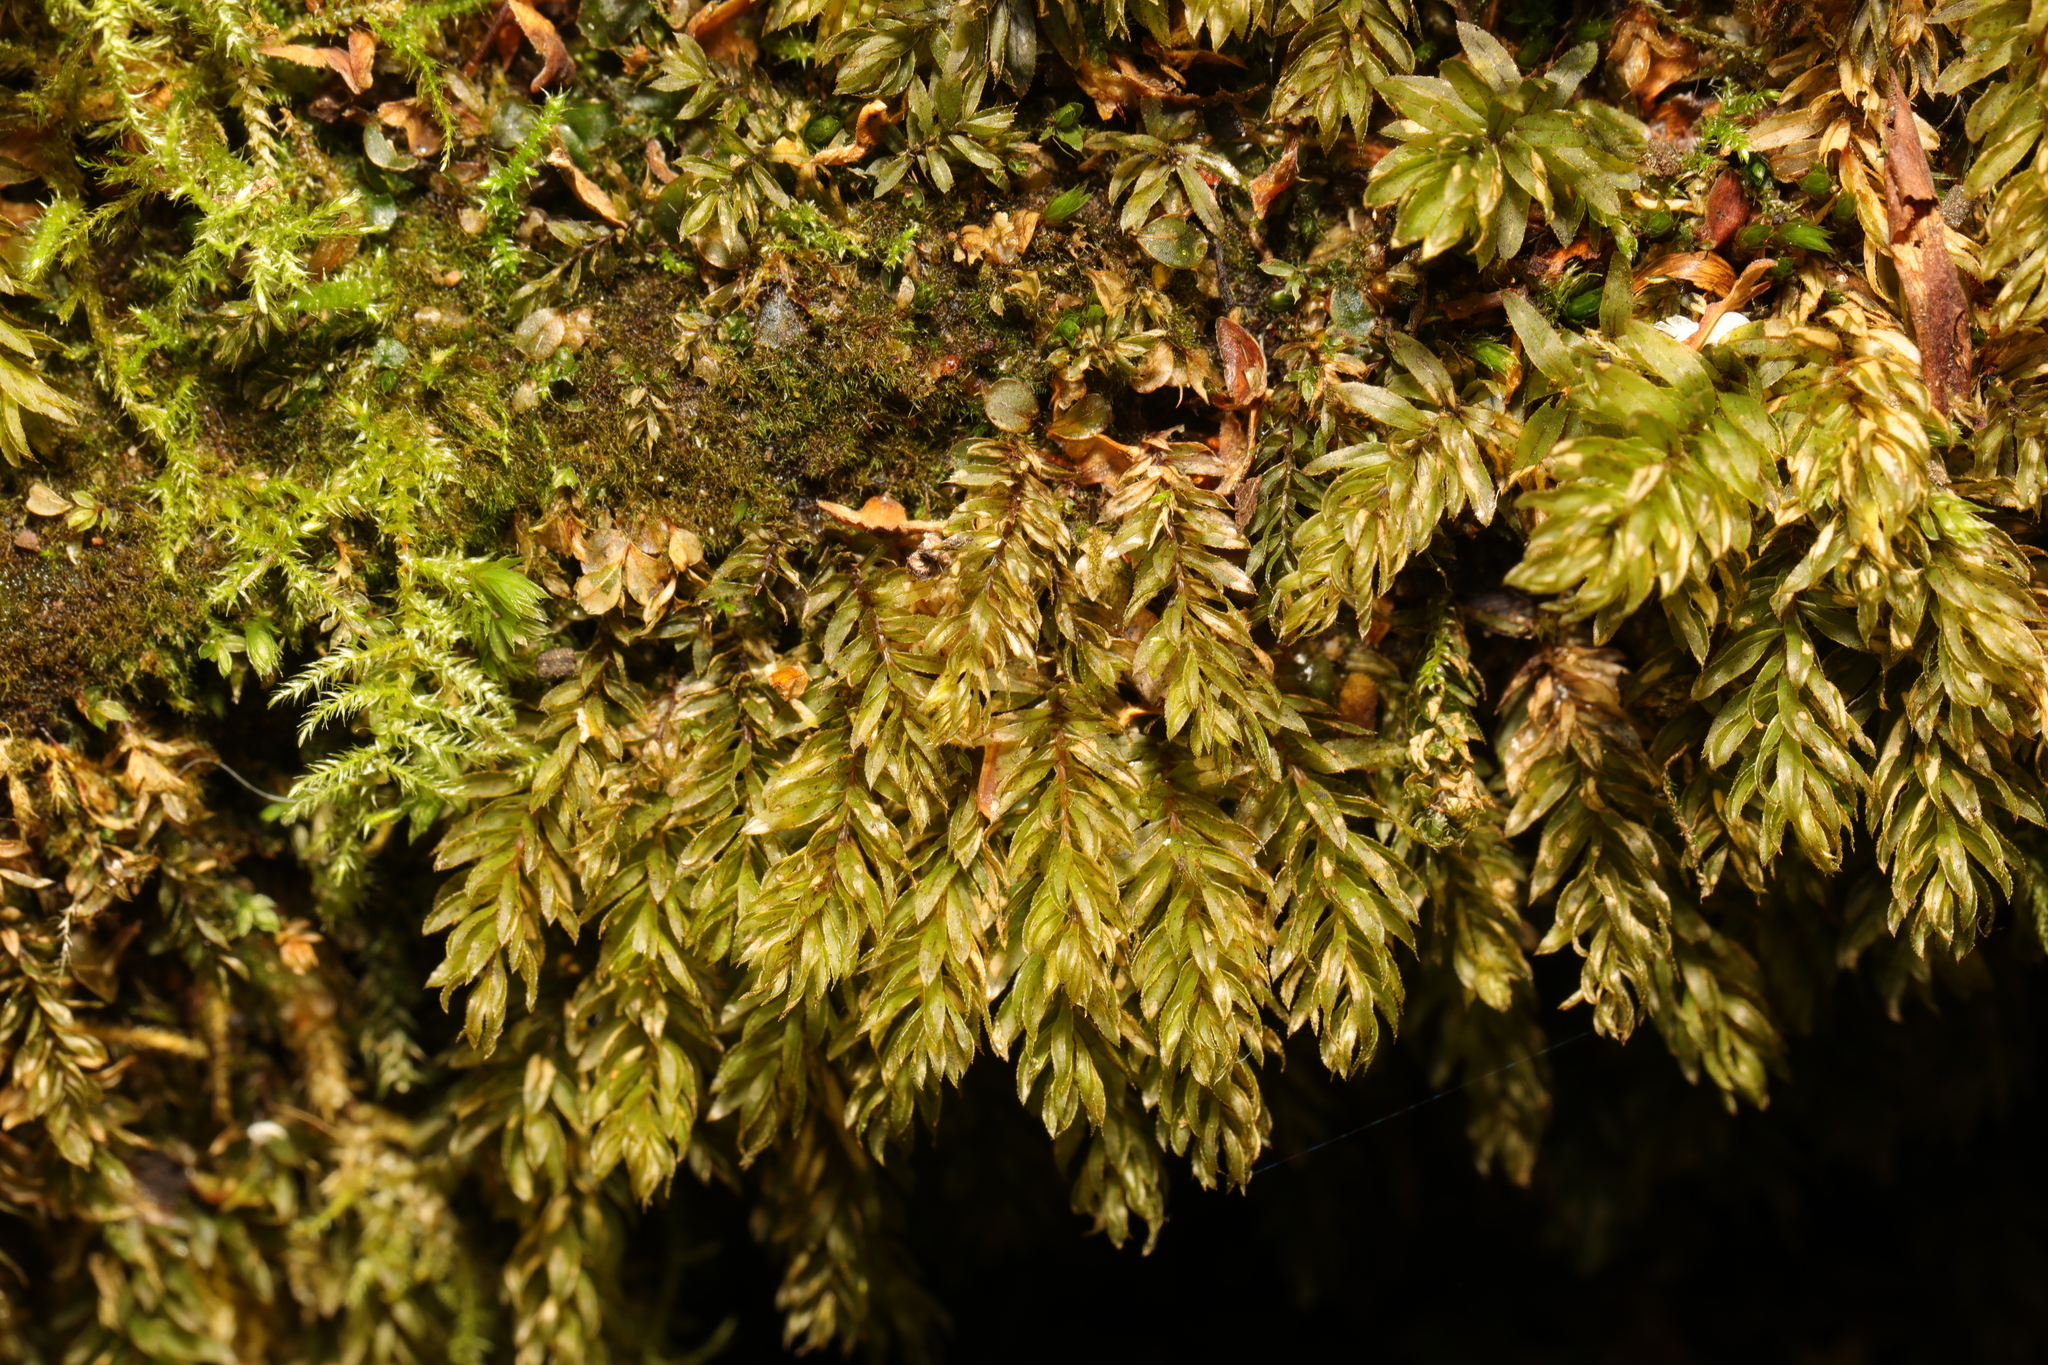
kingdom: Plantae
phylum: Bryophyta
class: Bryopsida
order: Bryales
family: Mniaceae
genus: Mnium
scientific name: Mnium hornum
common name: Swan's-neck leafy moss
